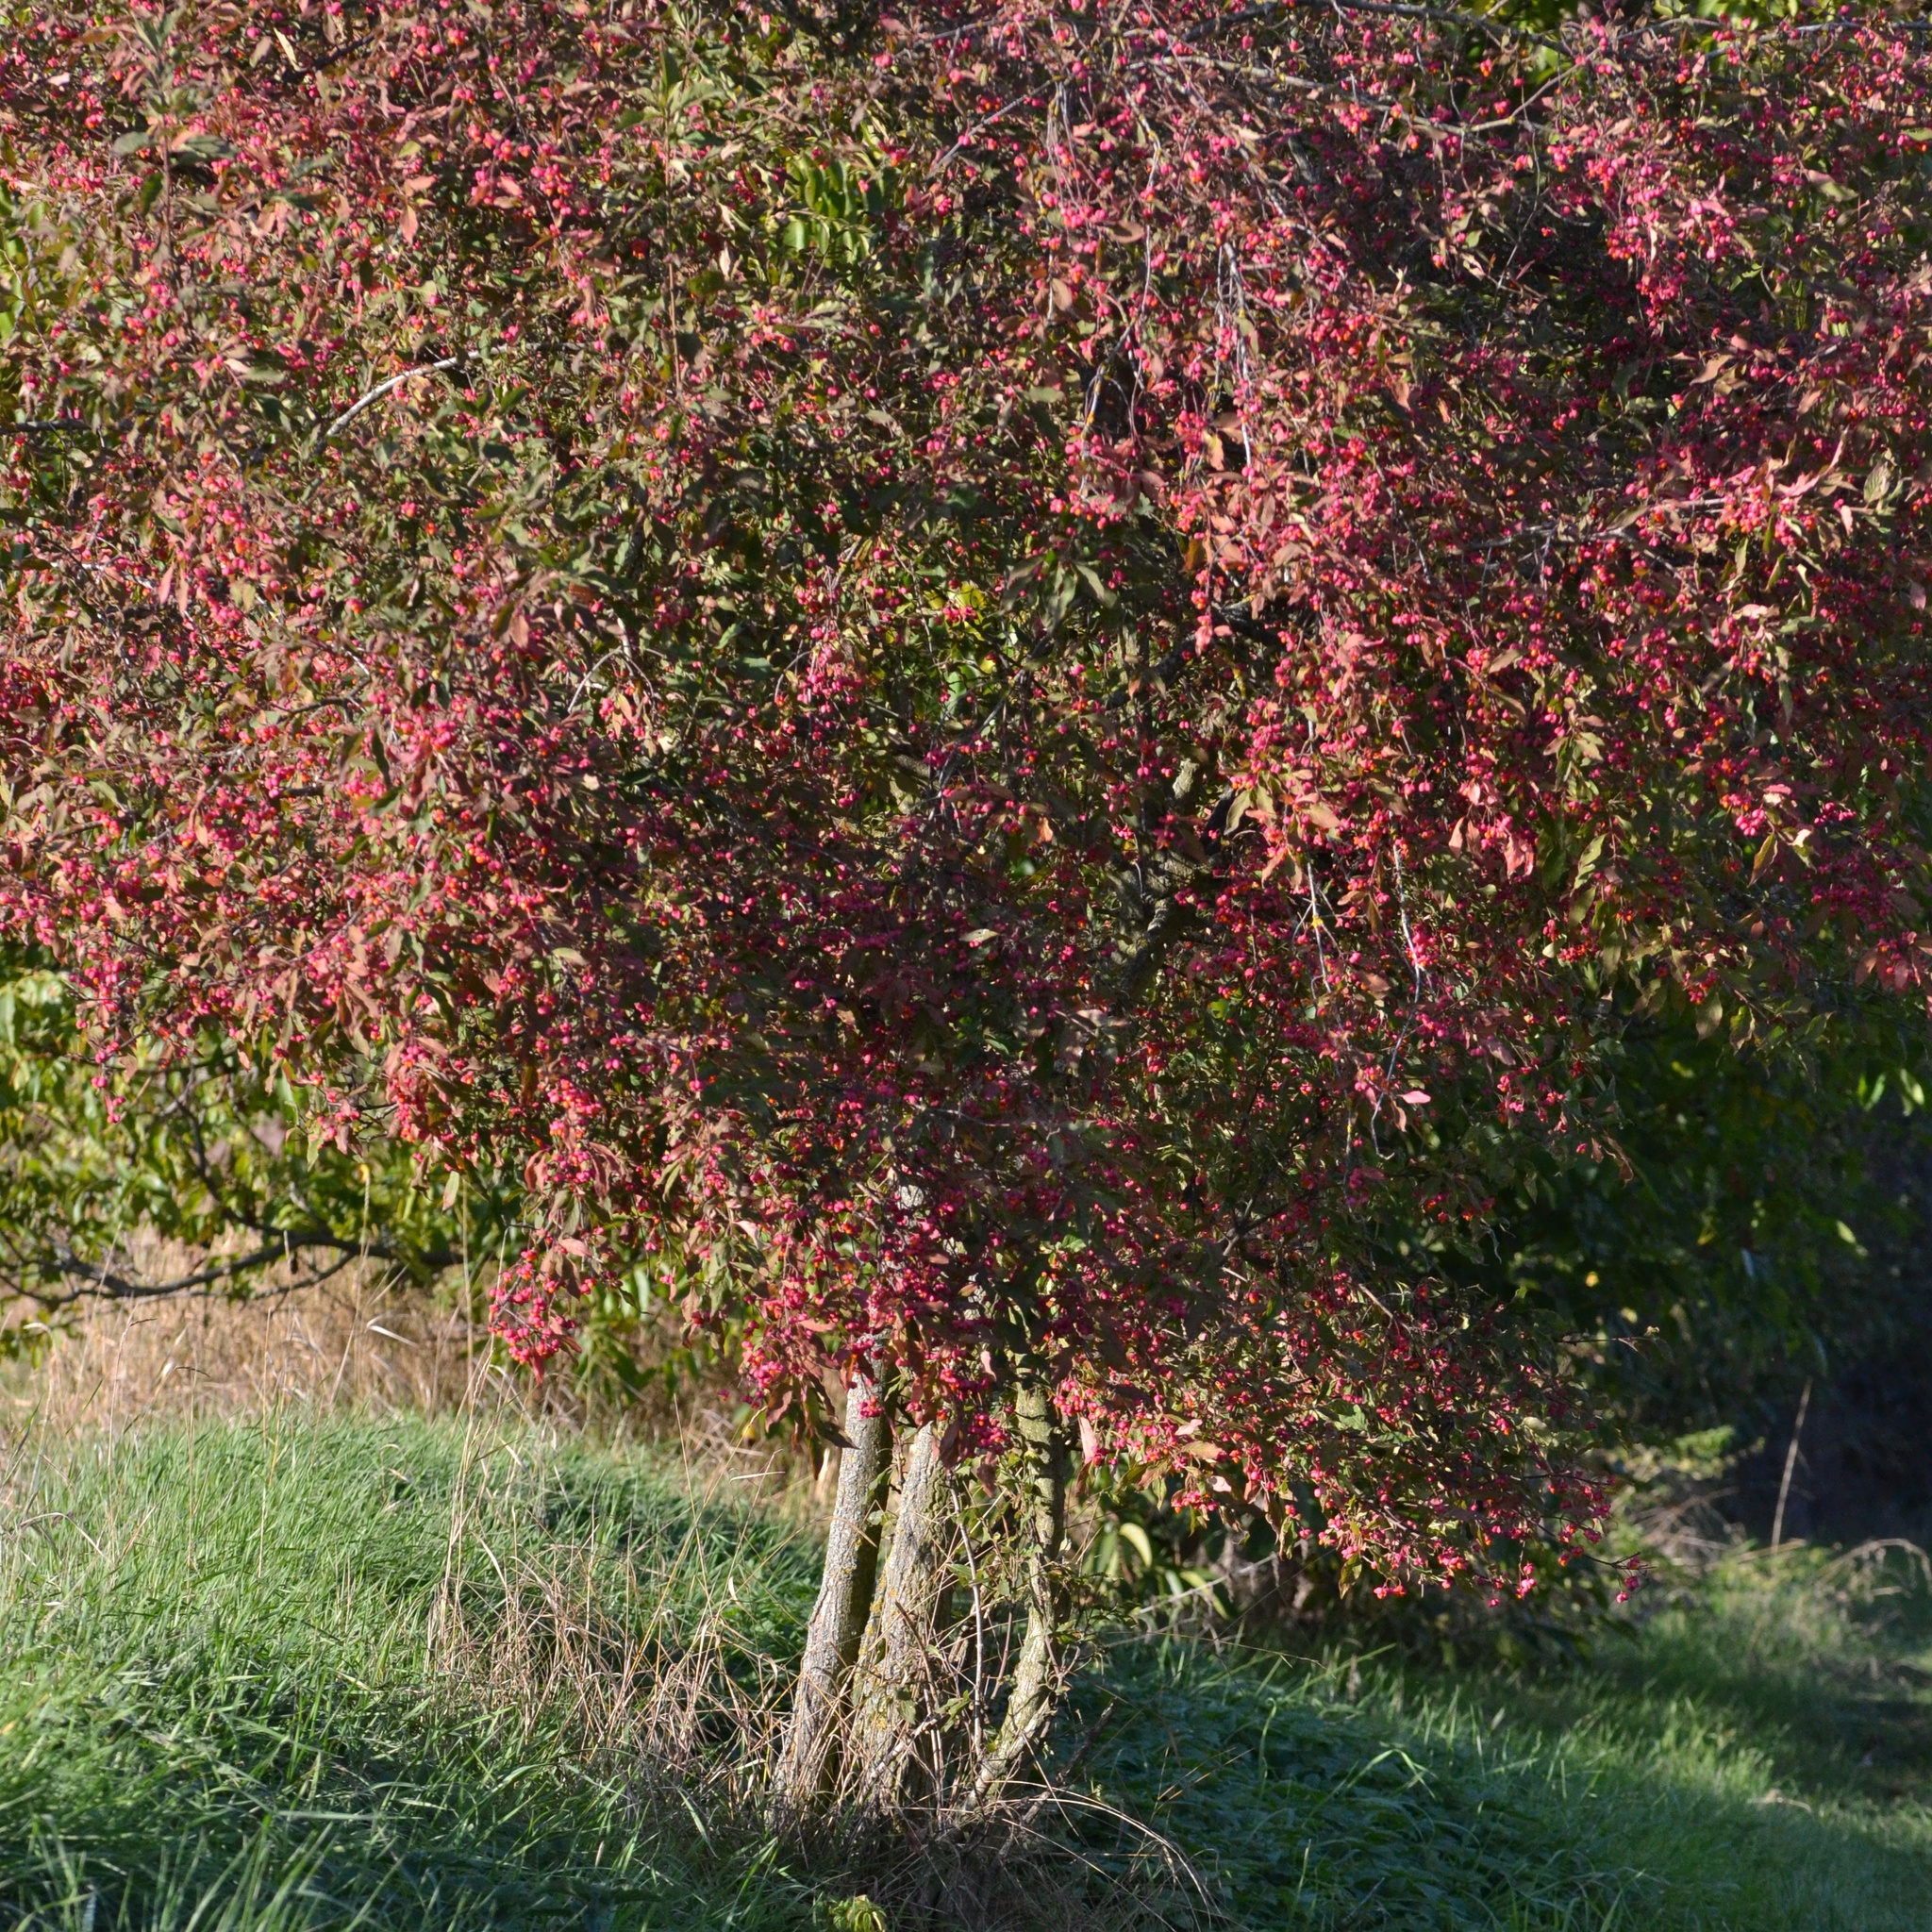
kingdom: Plantae
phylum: Tracheophyta
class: Magnoliopsida
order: Celastrales
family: Celastraceae
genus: Euonymus
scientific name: Euonymus europaeus
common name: Spindle
